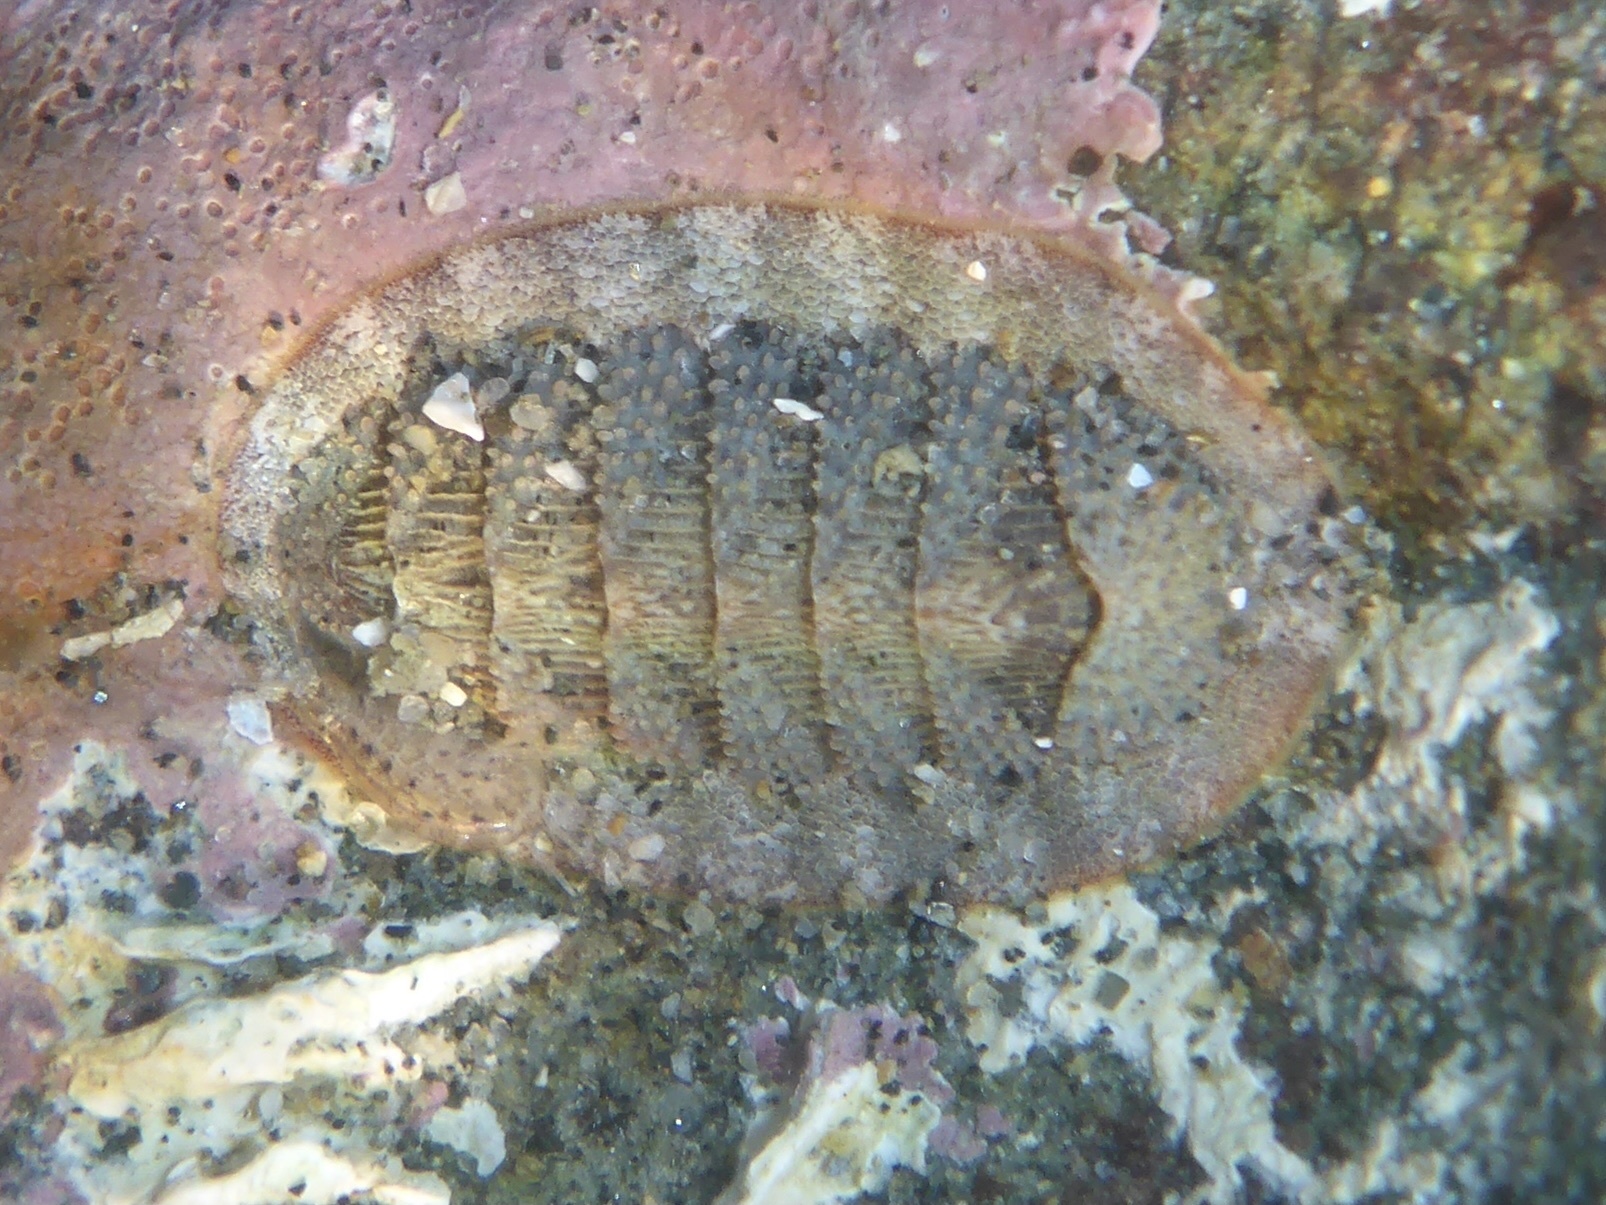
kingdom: Animalia
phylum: Mollusca
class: Polyplacophora
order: Chitonida
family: Ischnochitonidae
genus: Lepidozona
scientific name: Lepidozona cooperi
